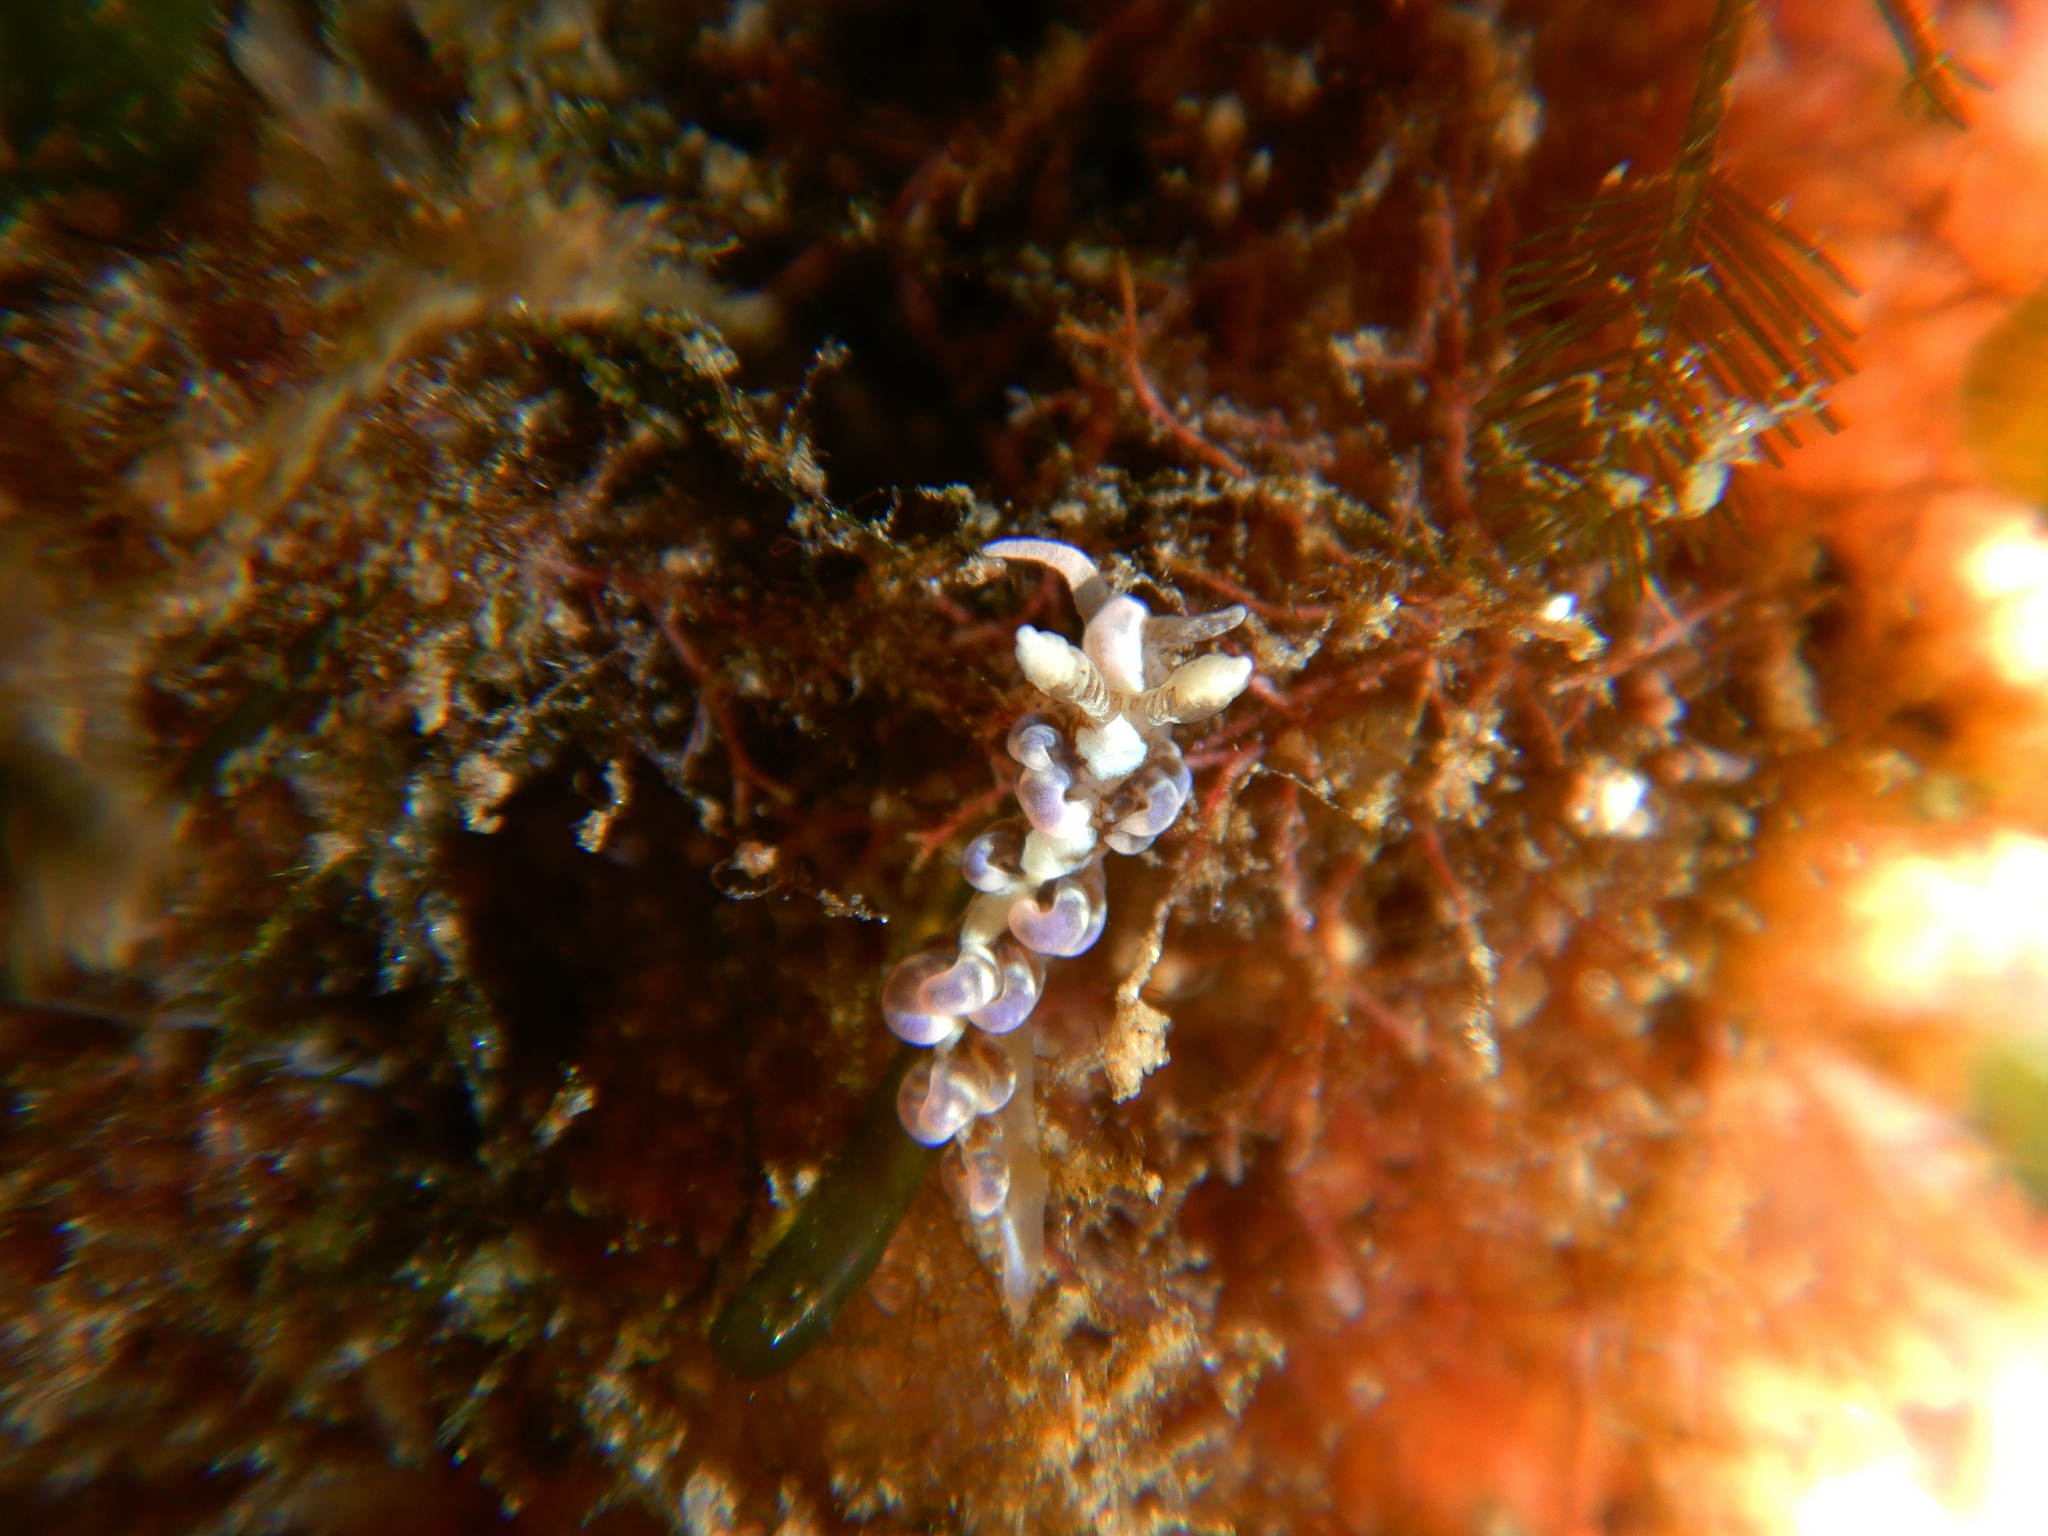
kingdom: Animalia
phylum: Mollusca
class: Gastropoda
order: Nudibranchia
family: Aeolidiidae
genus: Spurilla
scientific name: Spurilla neapolitana
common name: Naples spurilla
